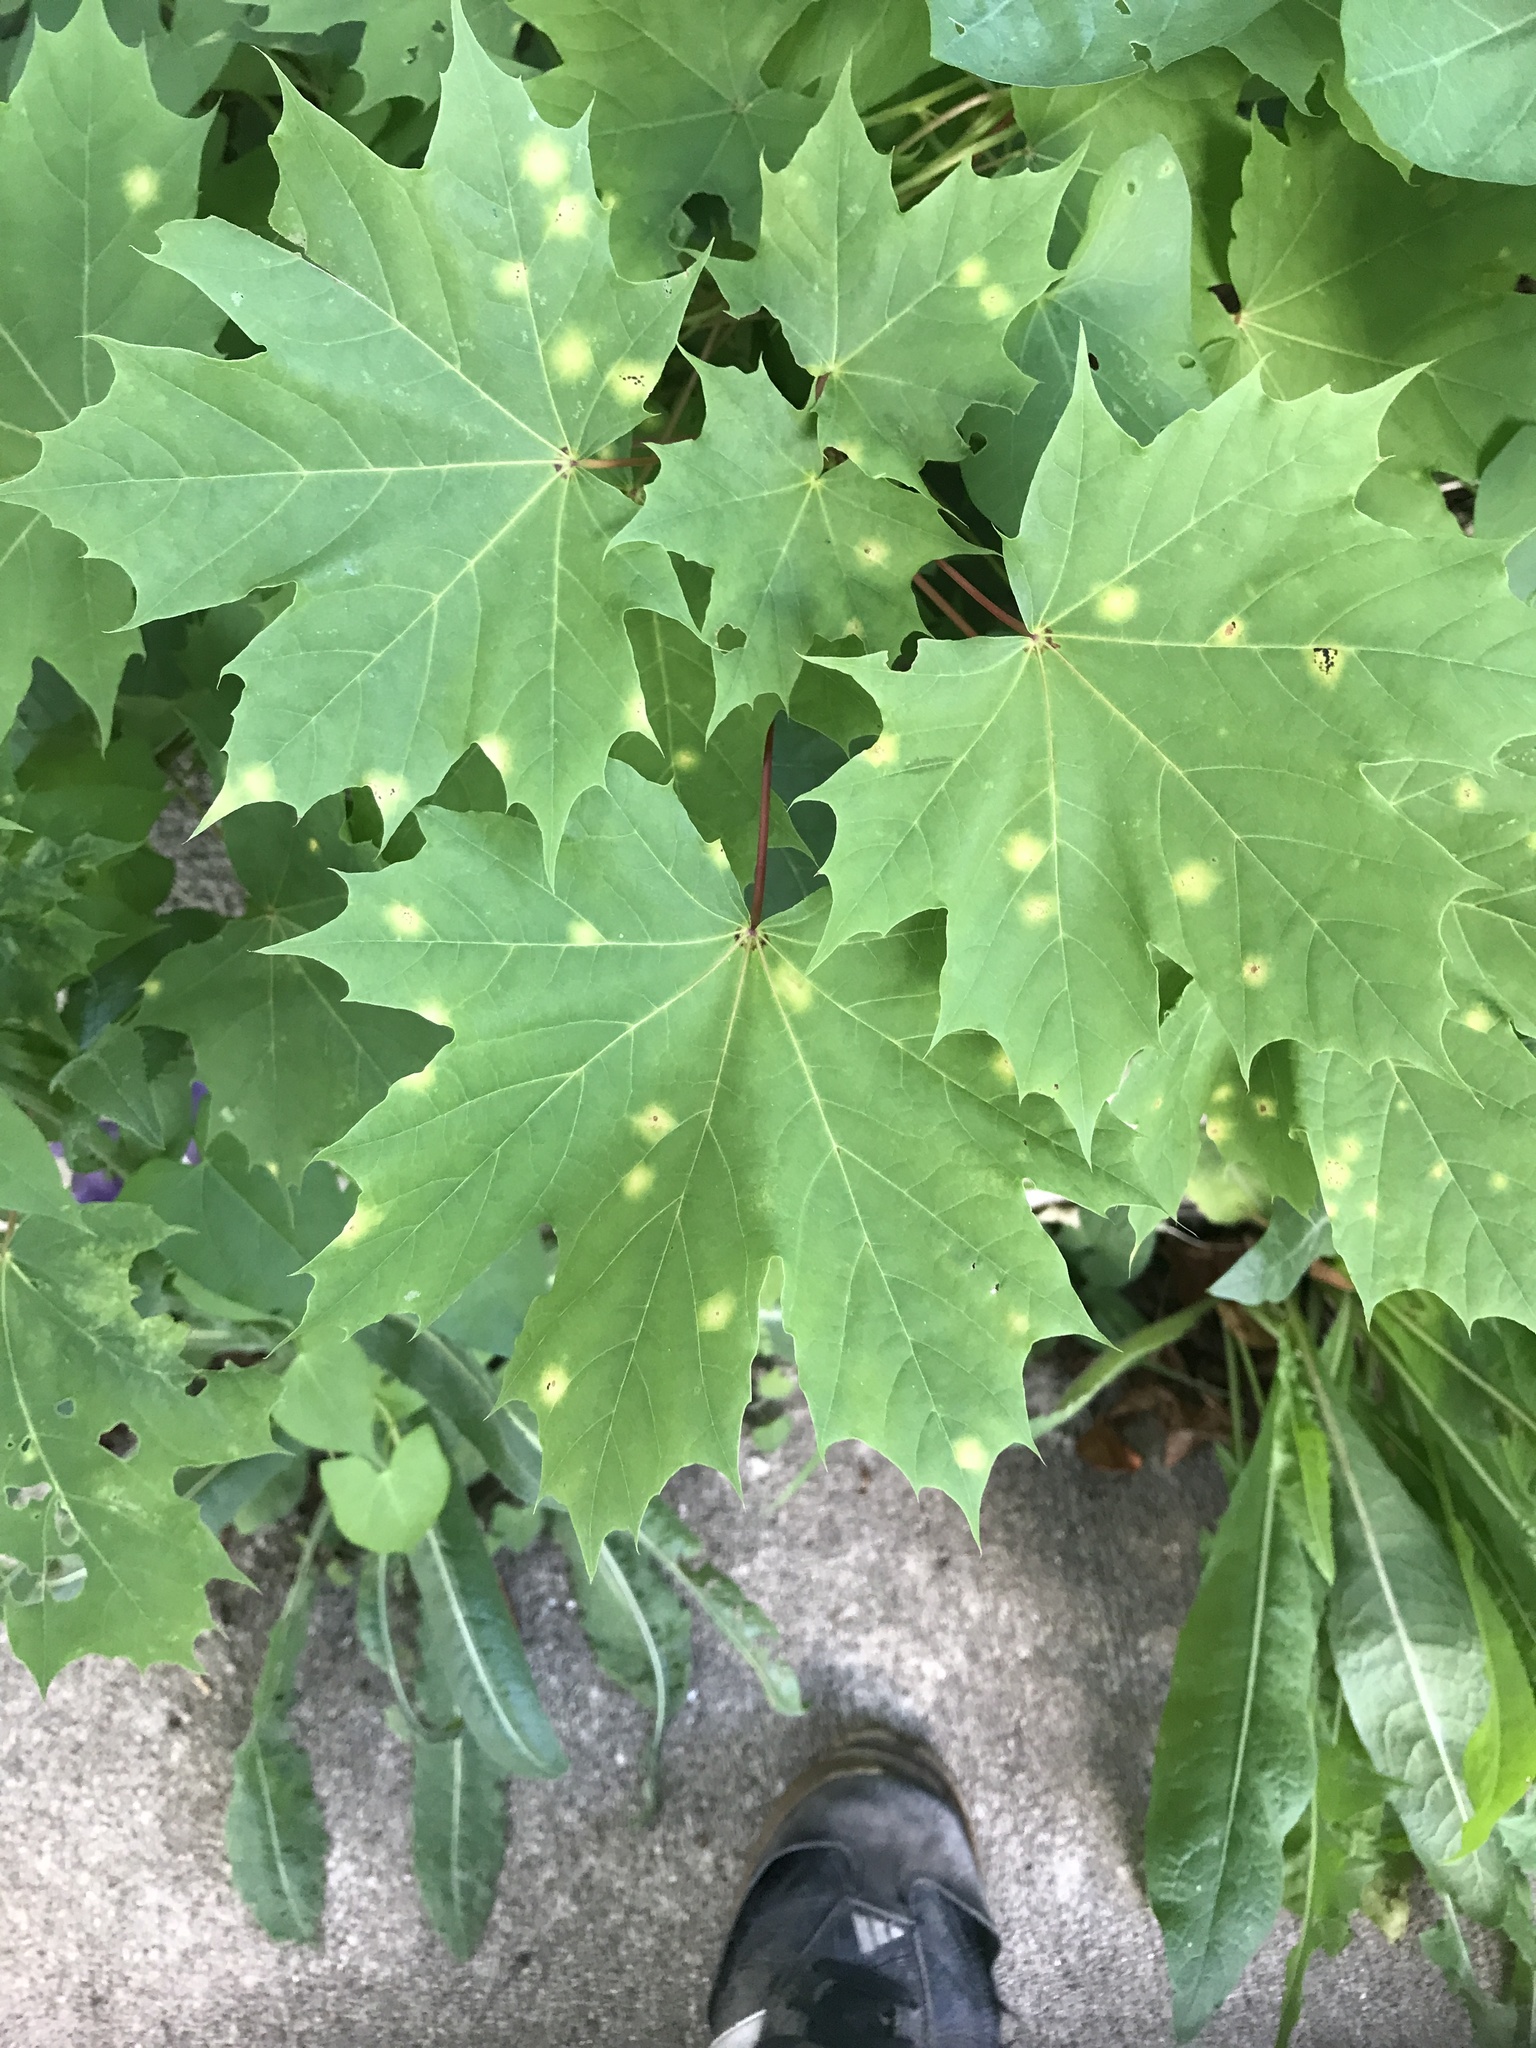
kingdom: Plantae
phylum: Tracheophyta
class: Magnoliopsida
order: Sapindales
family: Sapindaceae
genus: Acer
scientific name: Acer platanoides
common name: Norway maple
